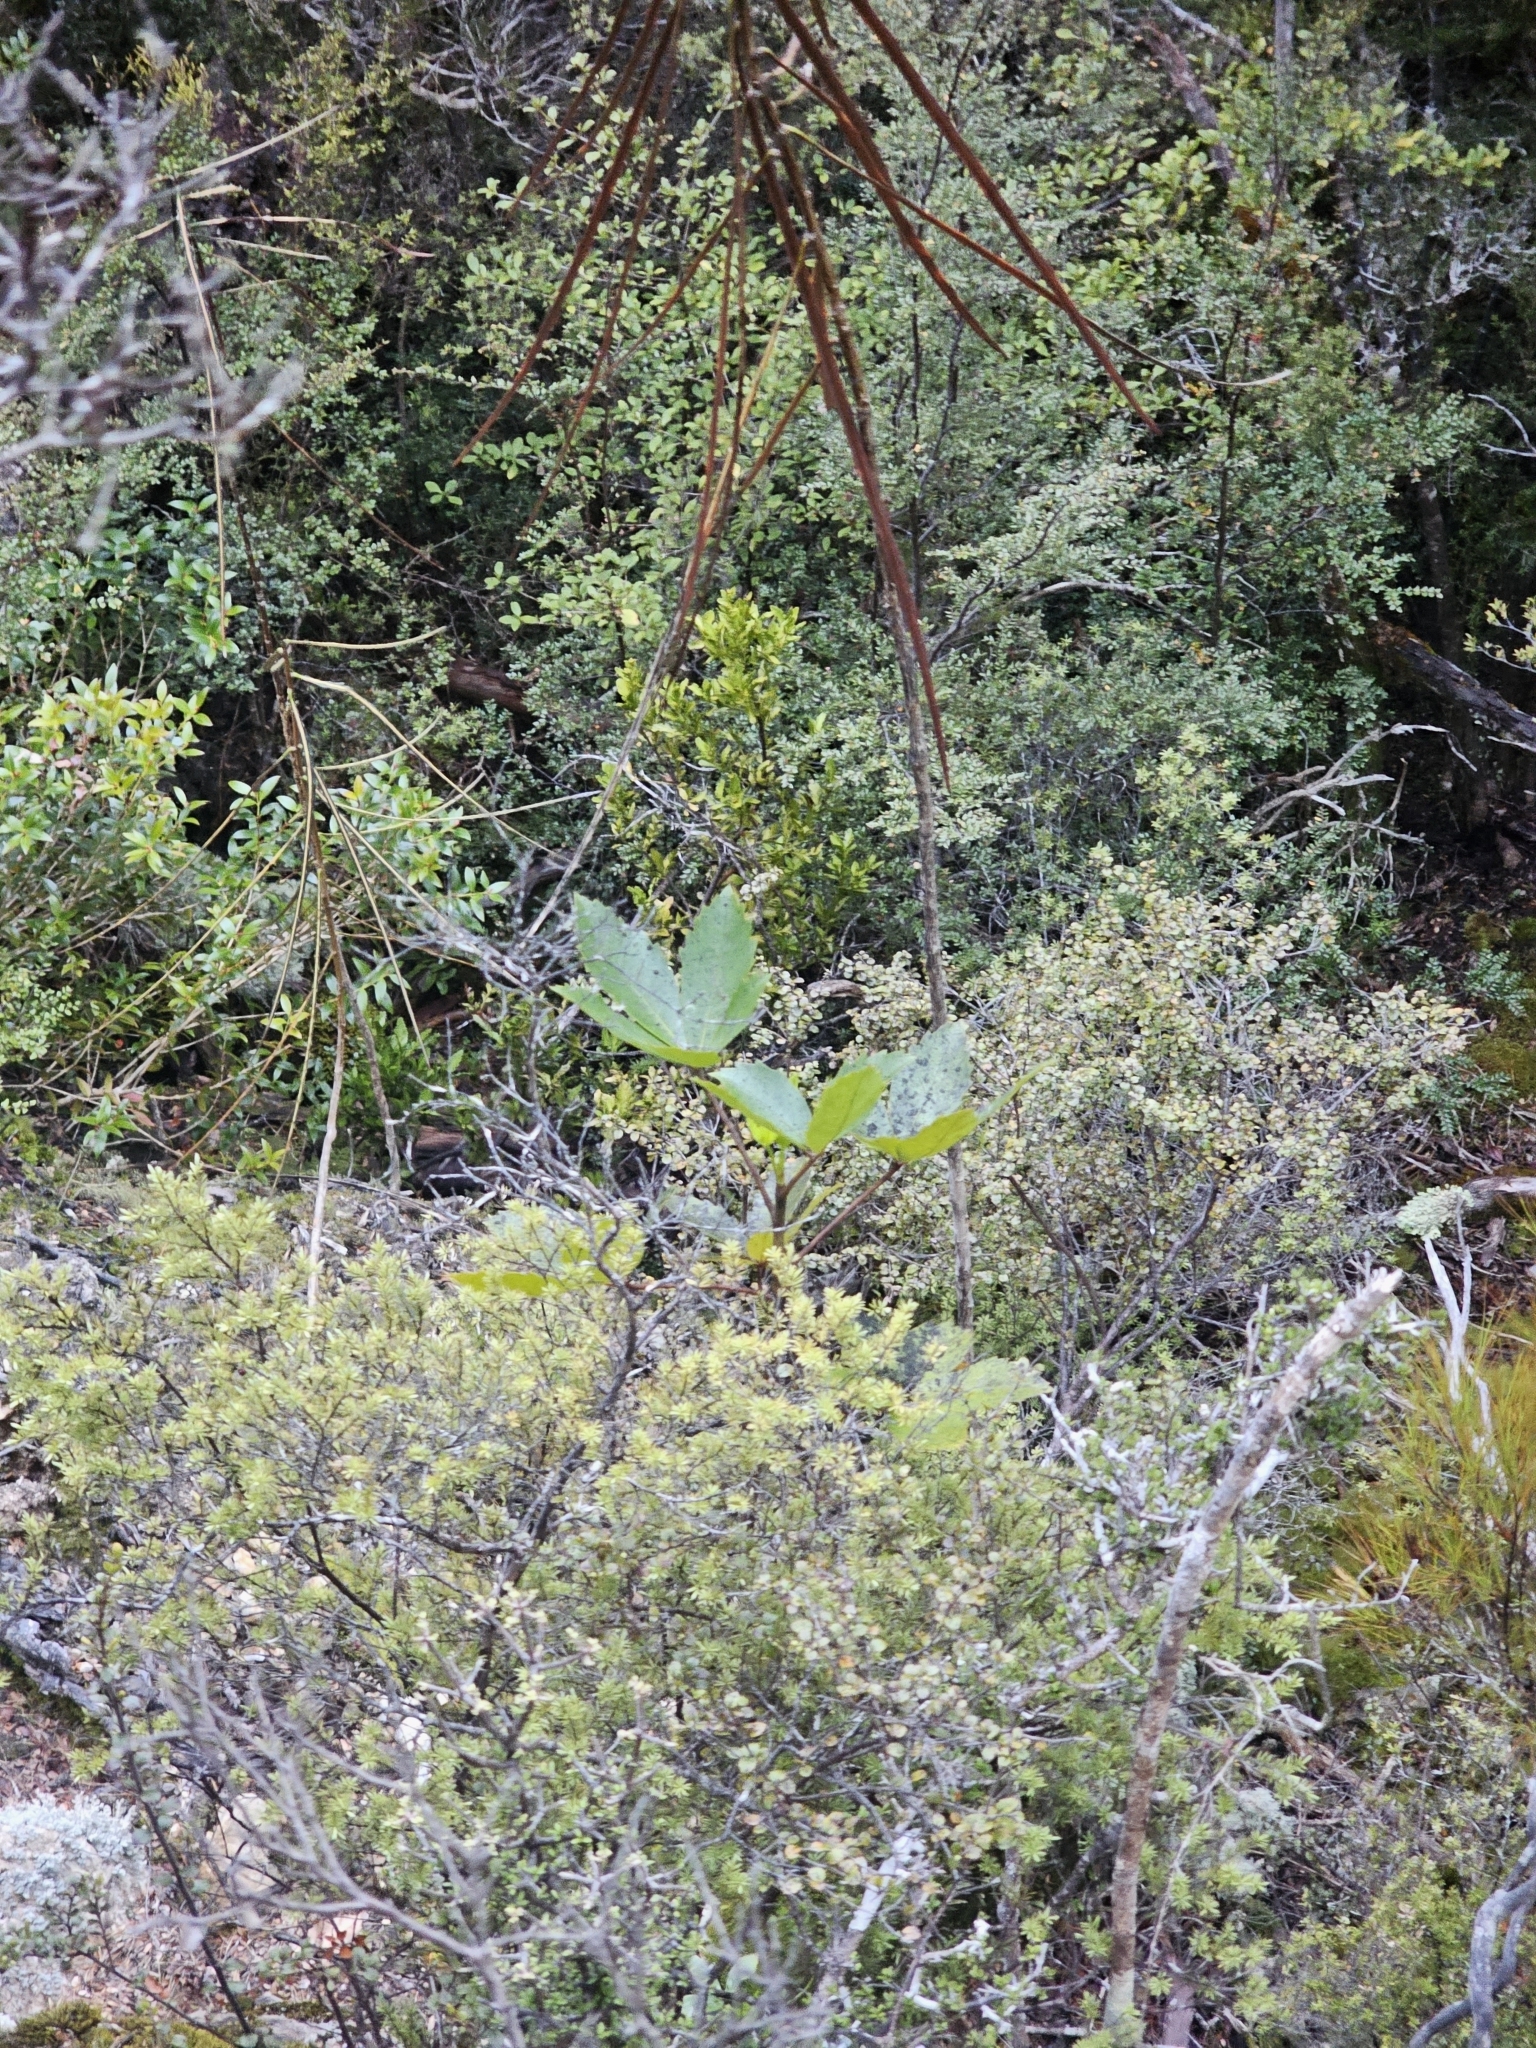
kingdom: Plantae
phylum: Tracheophyta
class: Magnoliopsida
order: Apiales
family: Araliaceae
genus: Raukaua
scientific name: Raukaua simplex
